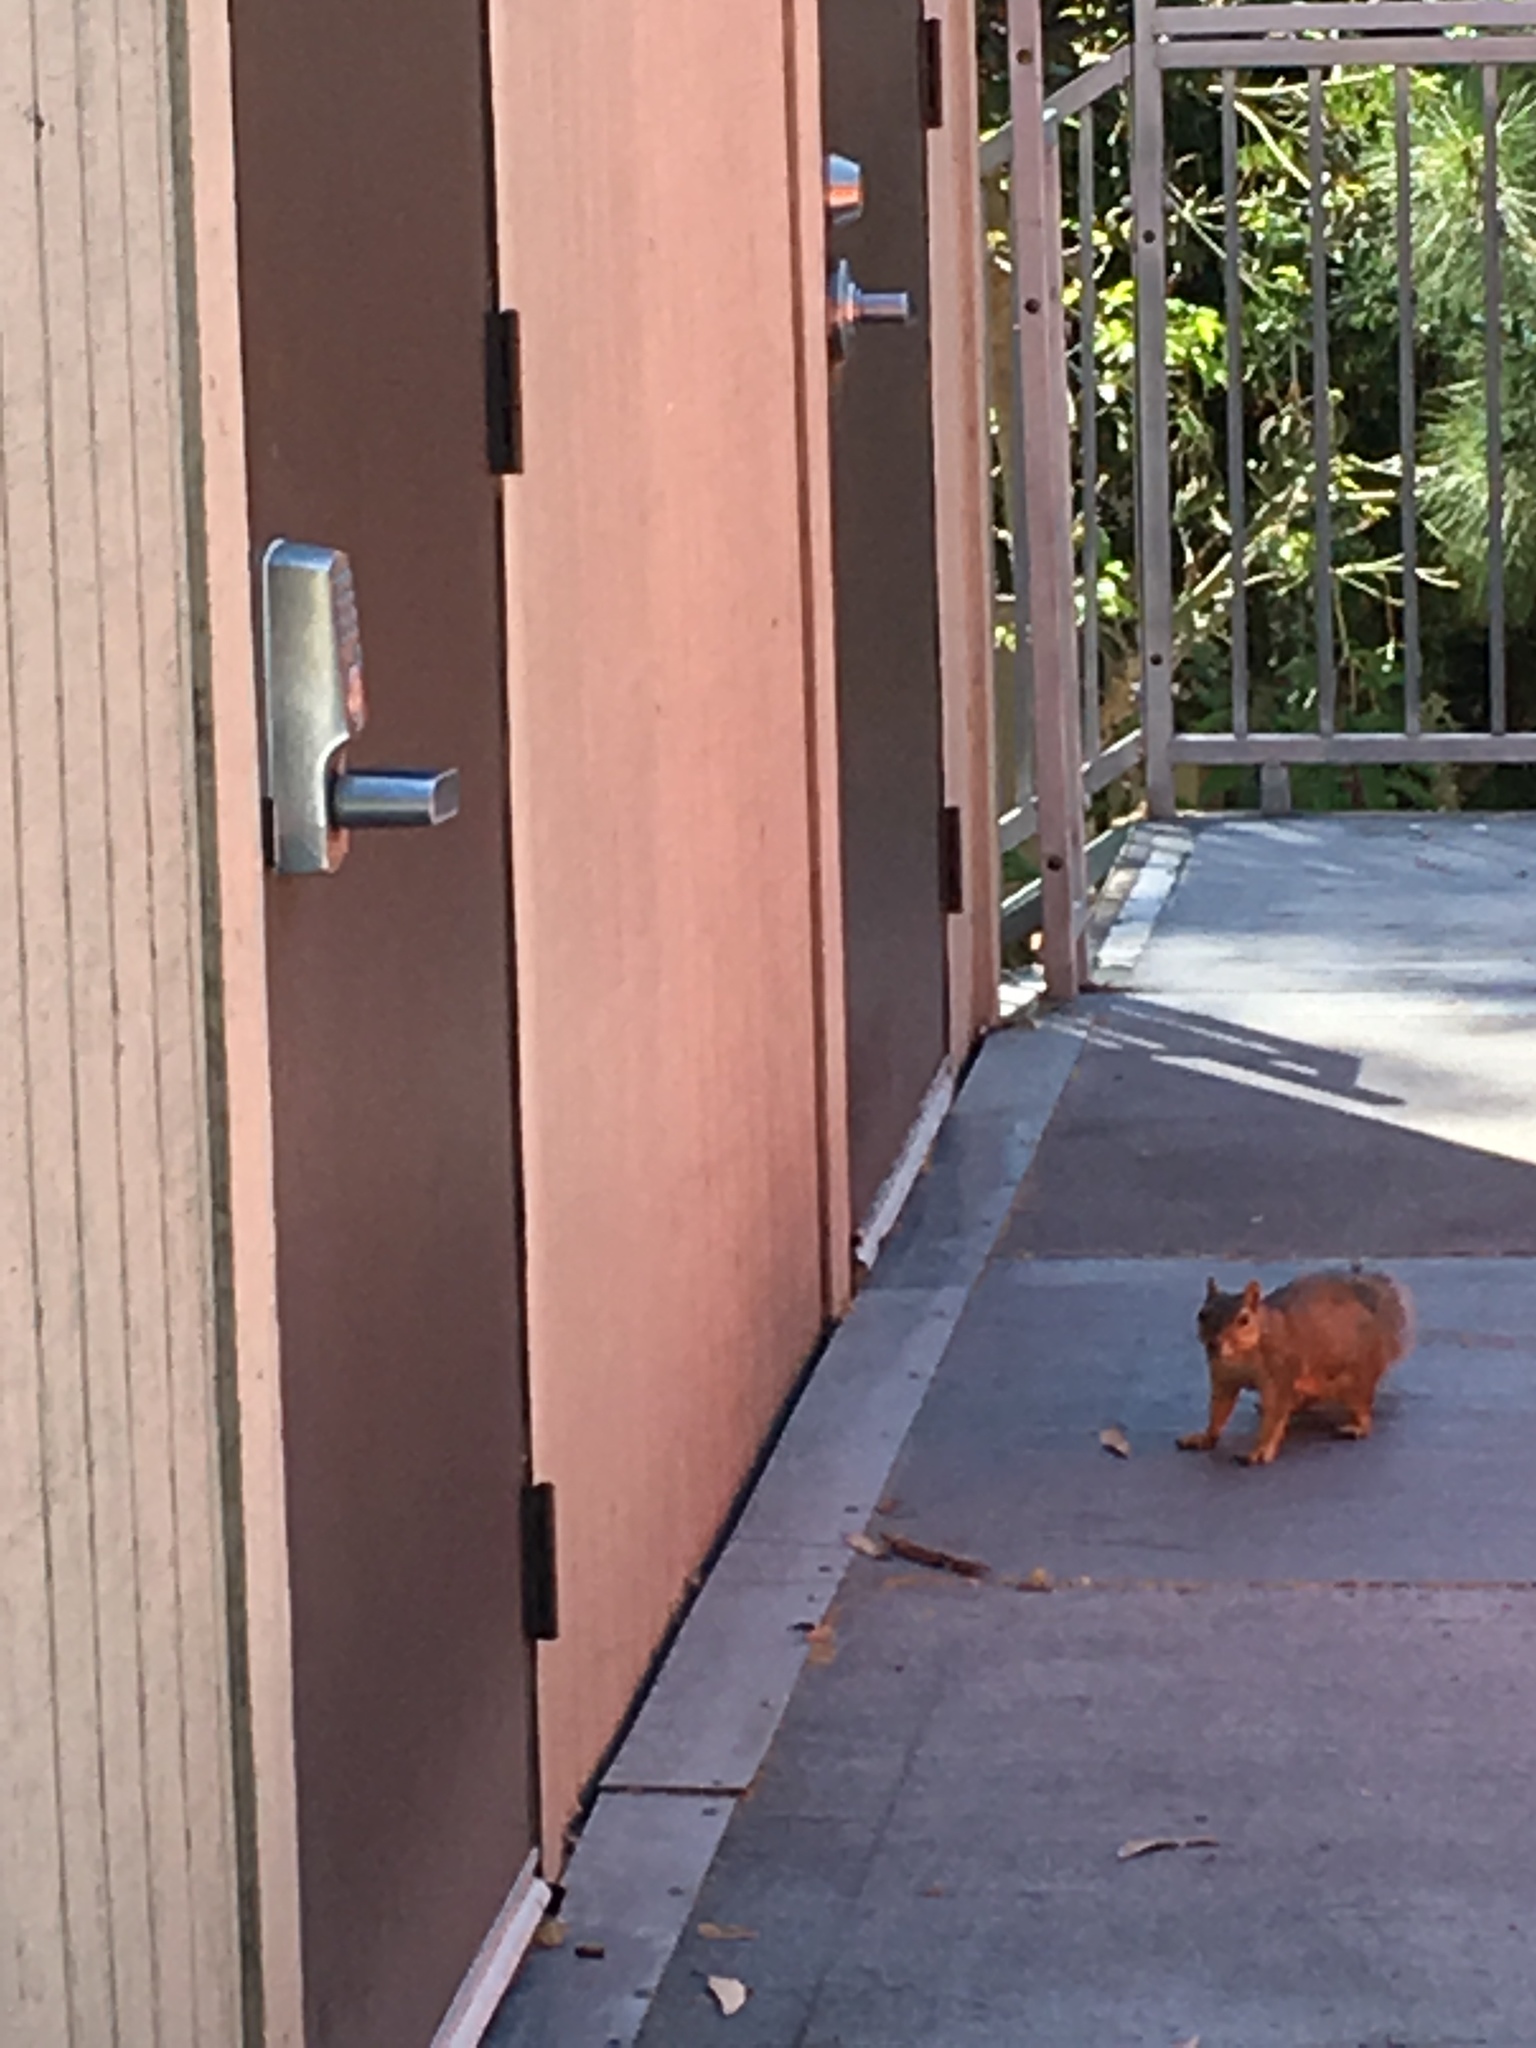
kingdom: Animalia
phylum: Chordata
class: Mammalia
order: Rodentia
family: Sciuridae
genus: Sciurus
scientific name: Sciurus niger
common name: Fox squirrel
